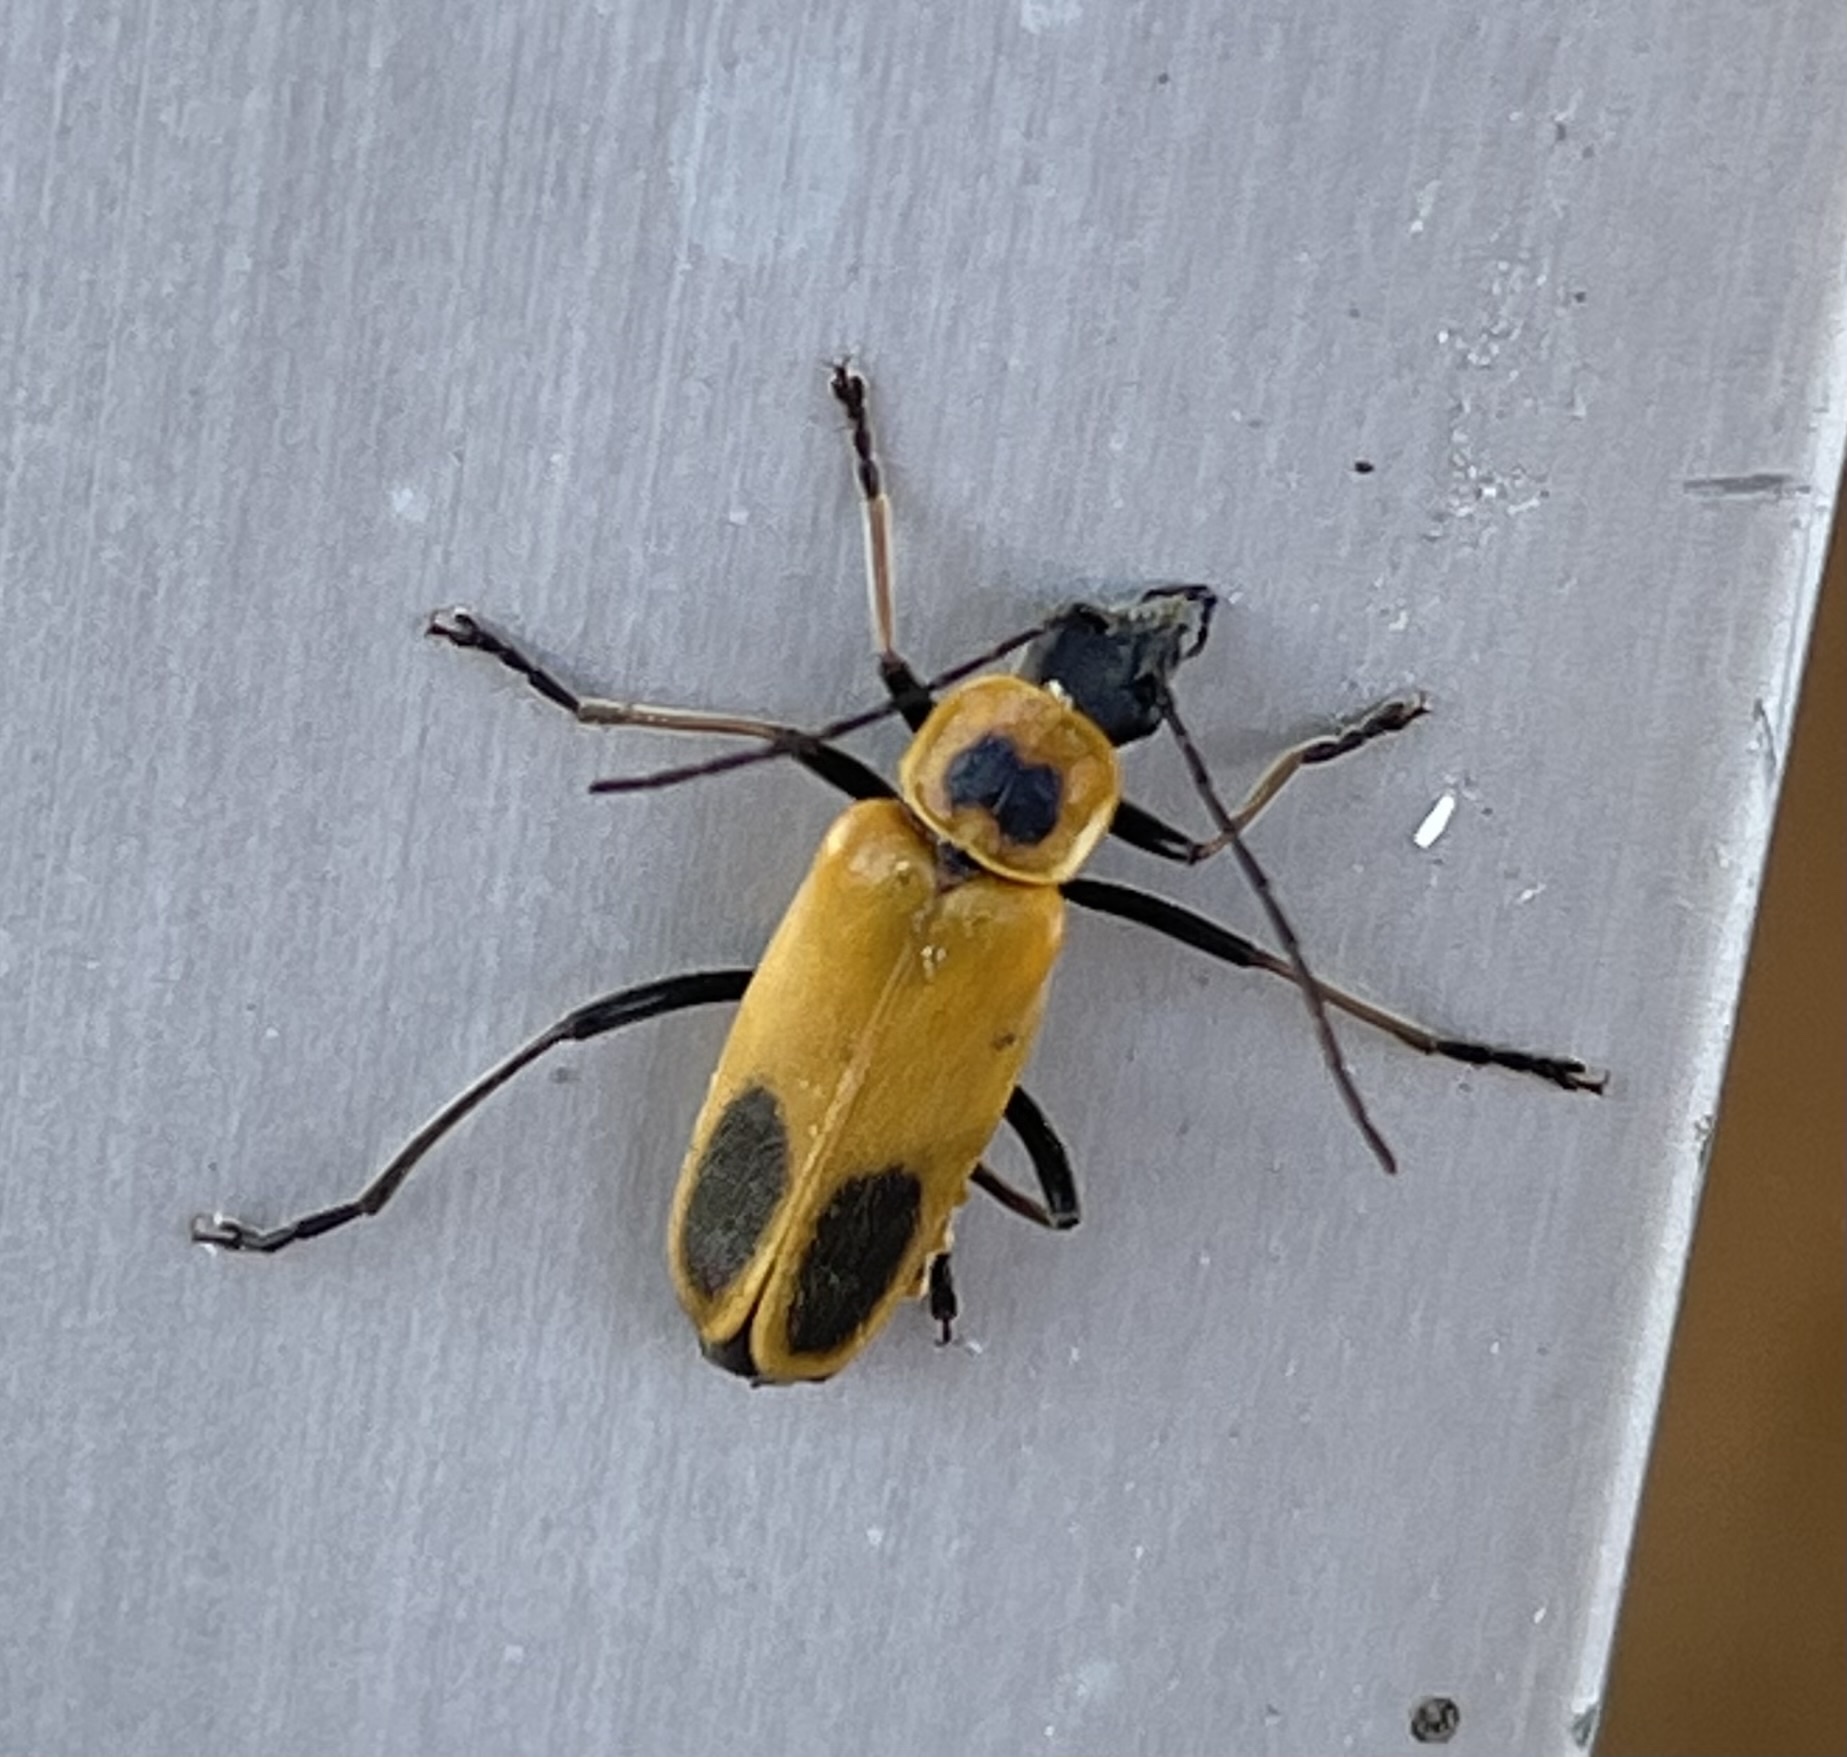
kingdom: Animalia
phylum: Arthropoda
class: Insecta
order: Coleoptera
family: Cantharidae
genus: Chauliognathus
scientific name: Chauliognathus pensylvanicus
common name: Goldenrod soldier beetle
